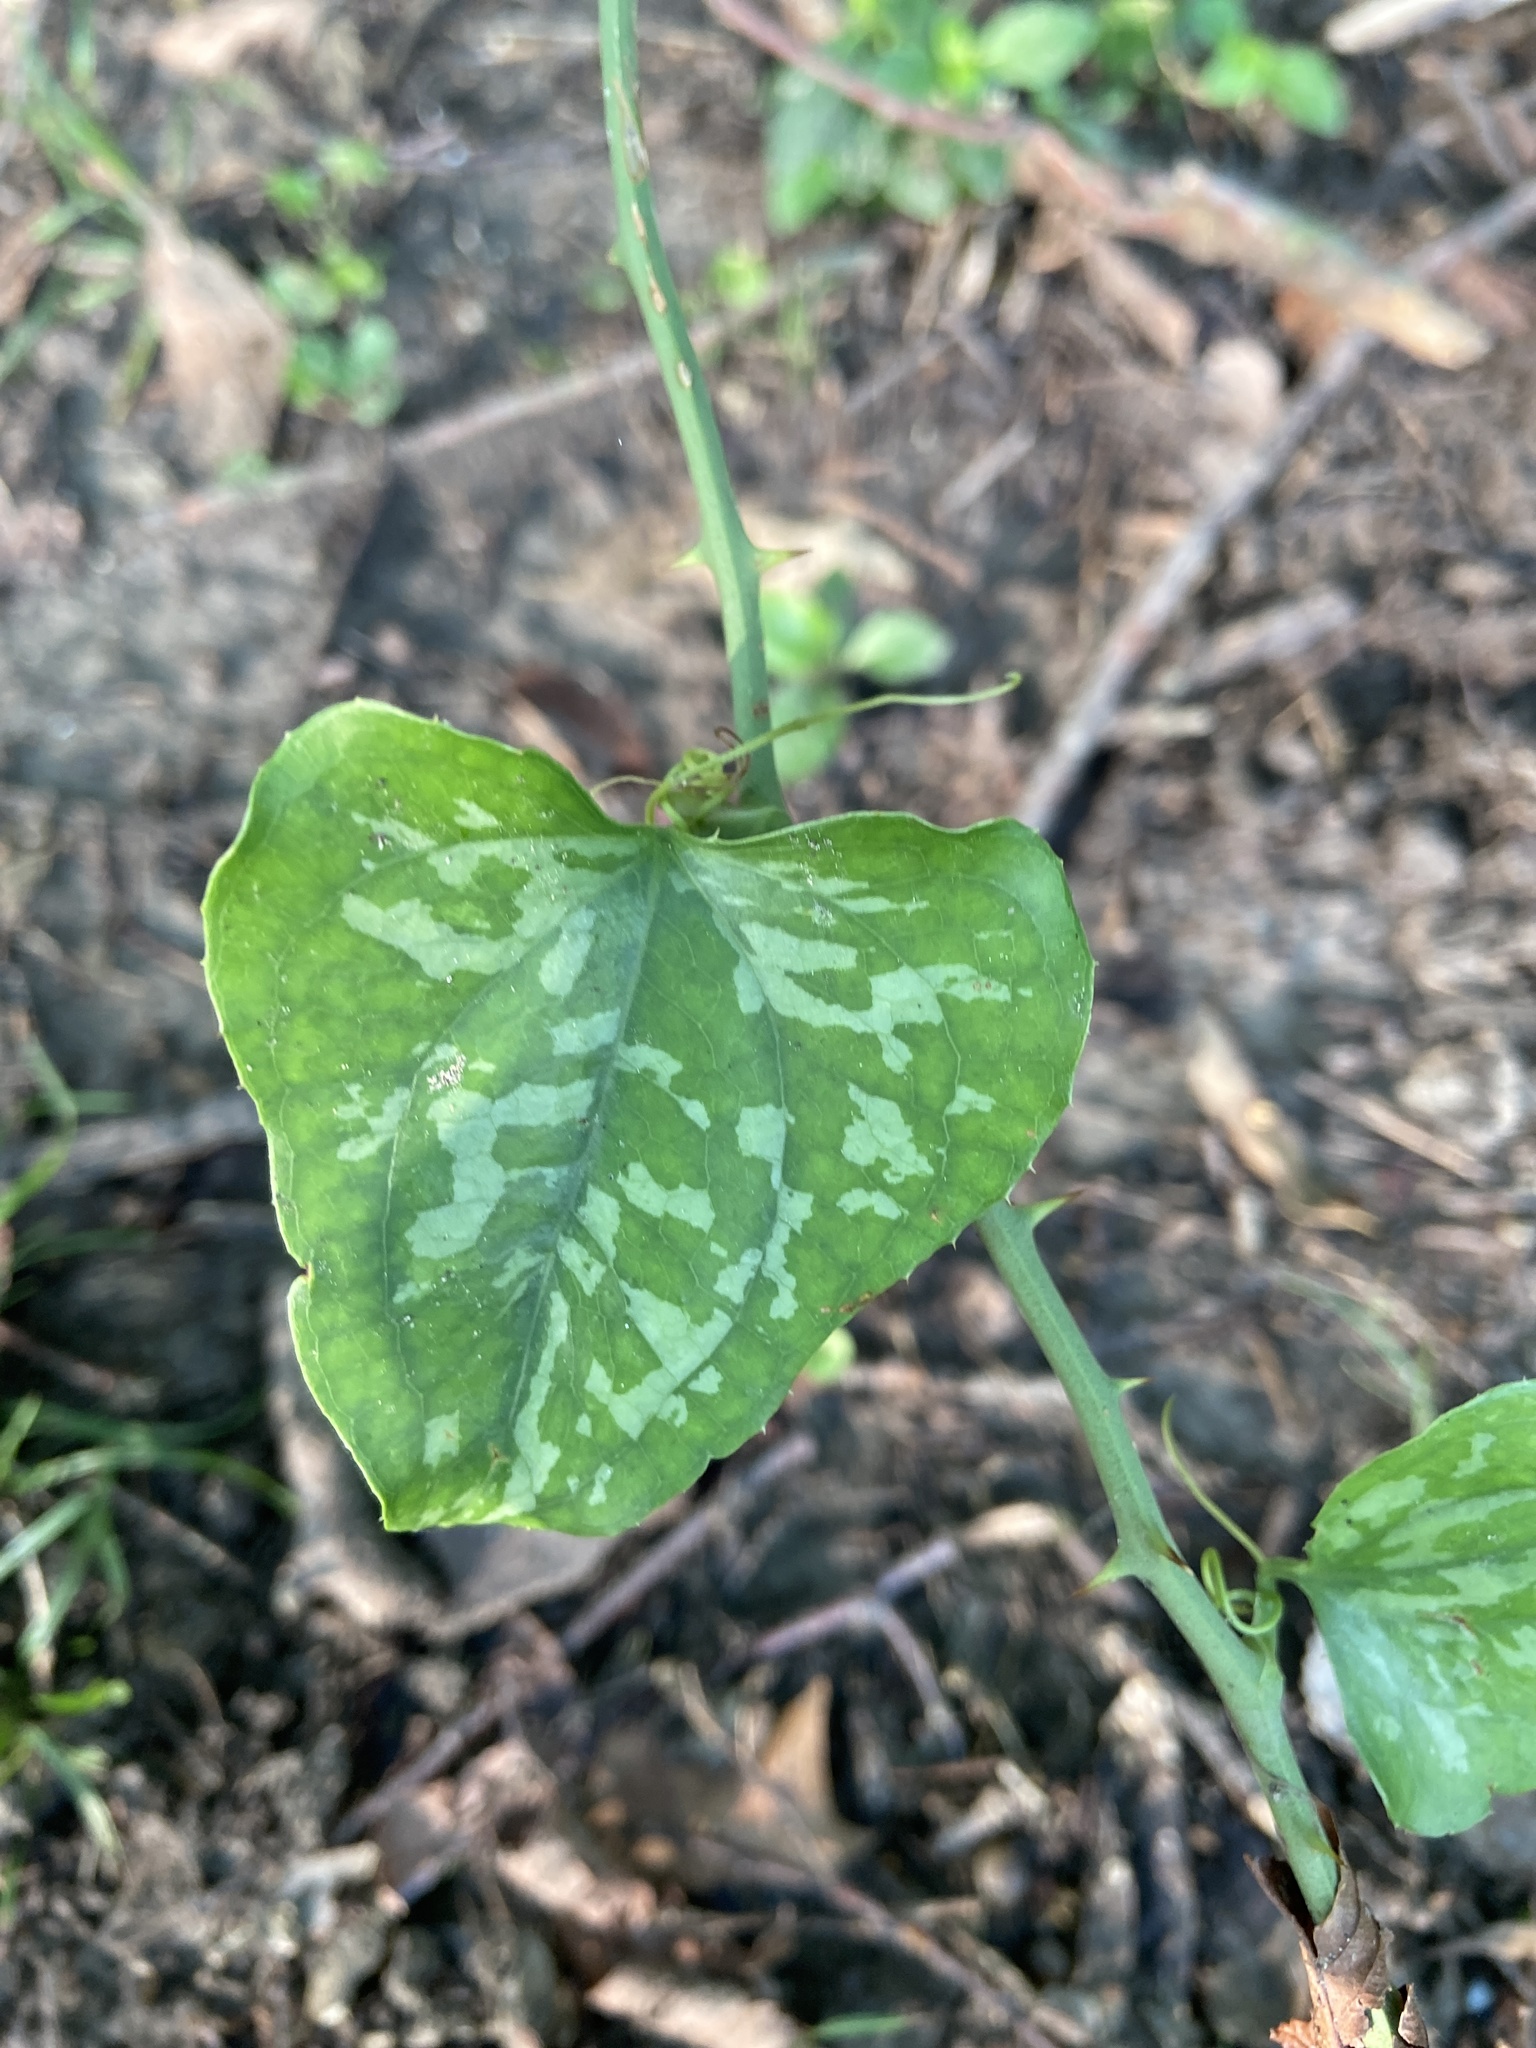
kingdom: Plantae
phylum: Tracheophyta
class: Liliopsida
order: Liliales
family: Smilacaceae
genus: Smilax
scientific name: Smilax bona-nox
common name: Catbrier
